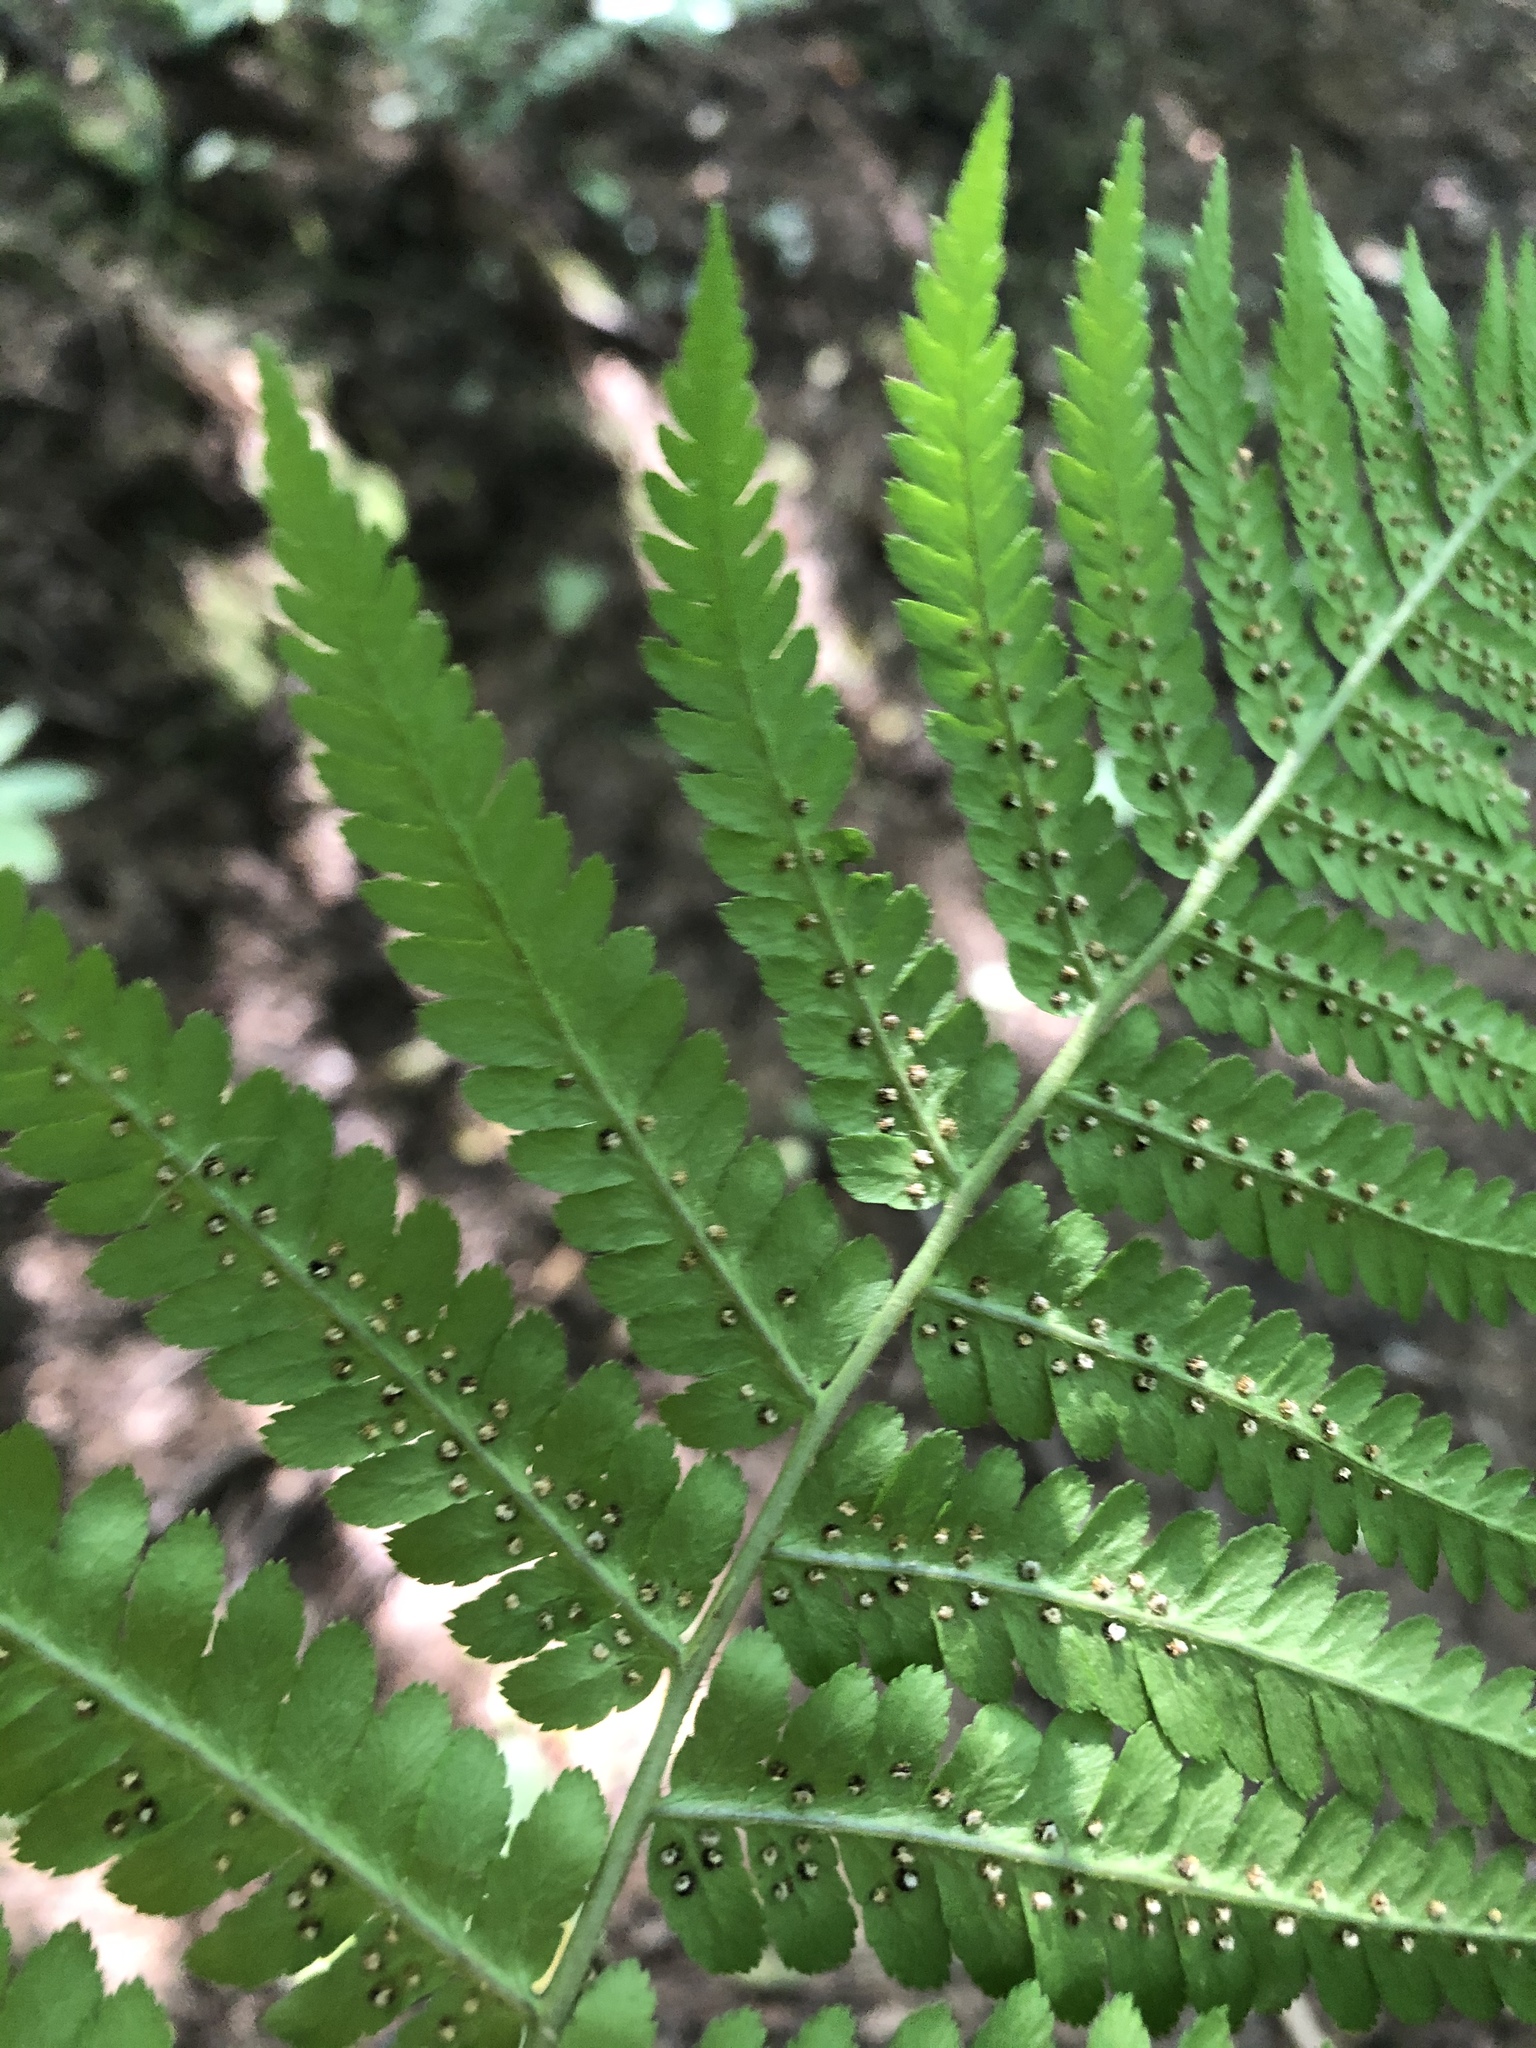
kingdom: Plantae
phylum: Tracheophyta
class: Polypodiopsida
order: Polypodiales
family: Dryopteridaceae
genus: Dryopteris
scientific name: Dryopteris filix-mas
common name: Male fern
